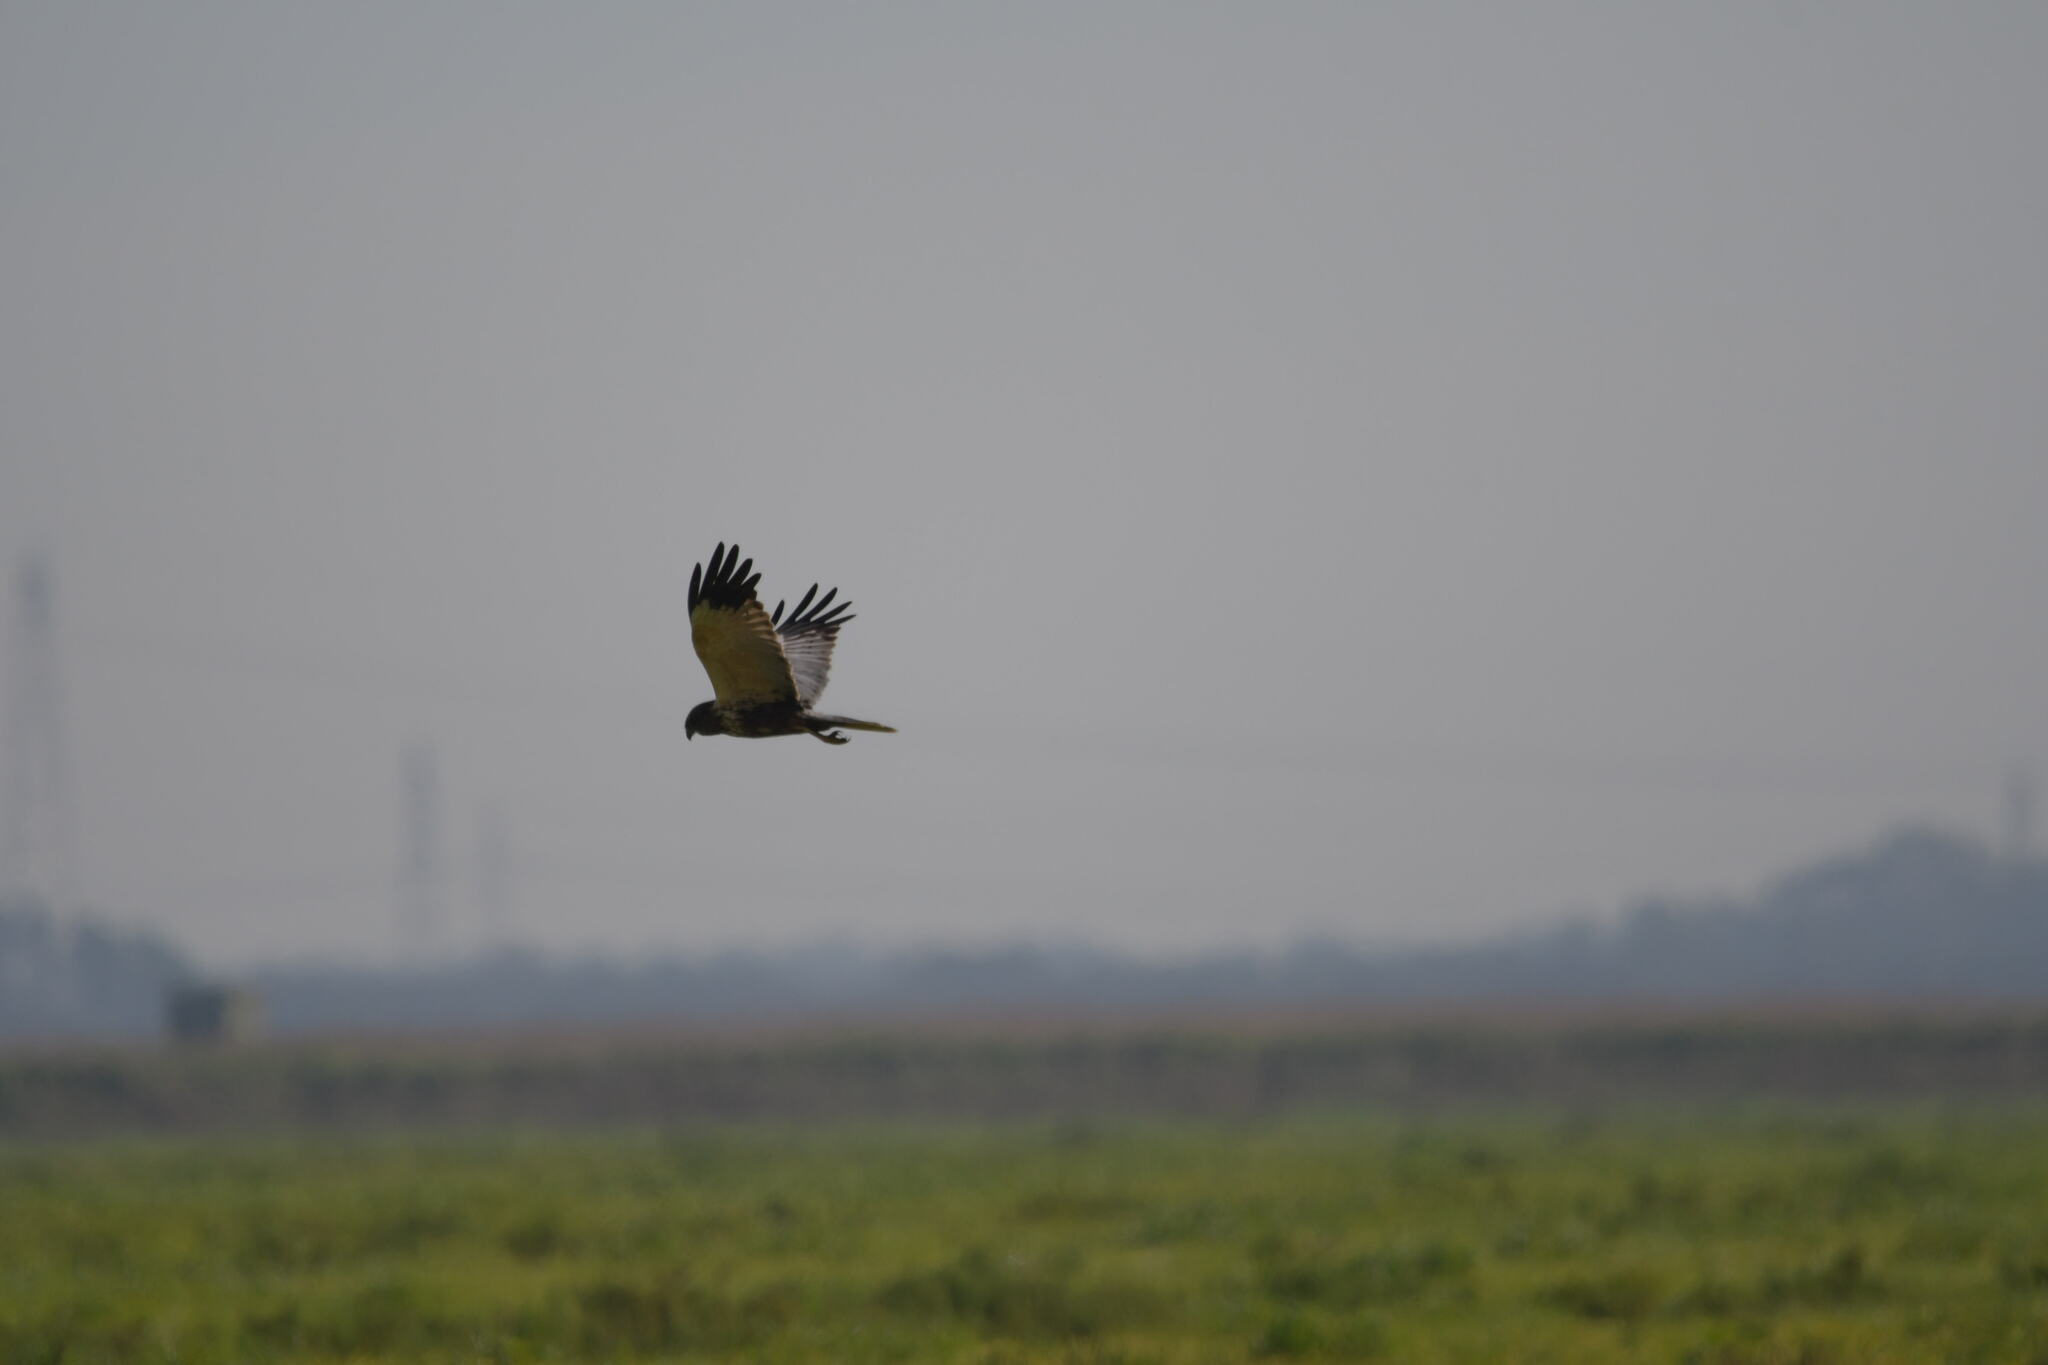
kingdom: Animalia
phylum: Chordata
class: Aves
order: Accipitriformes
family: Accipitridae
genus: Circus
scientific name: Circus aeruginosus
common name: Western marsh harrier
